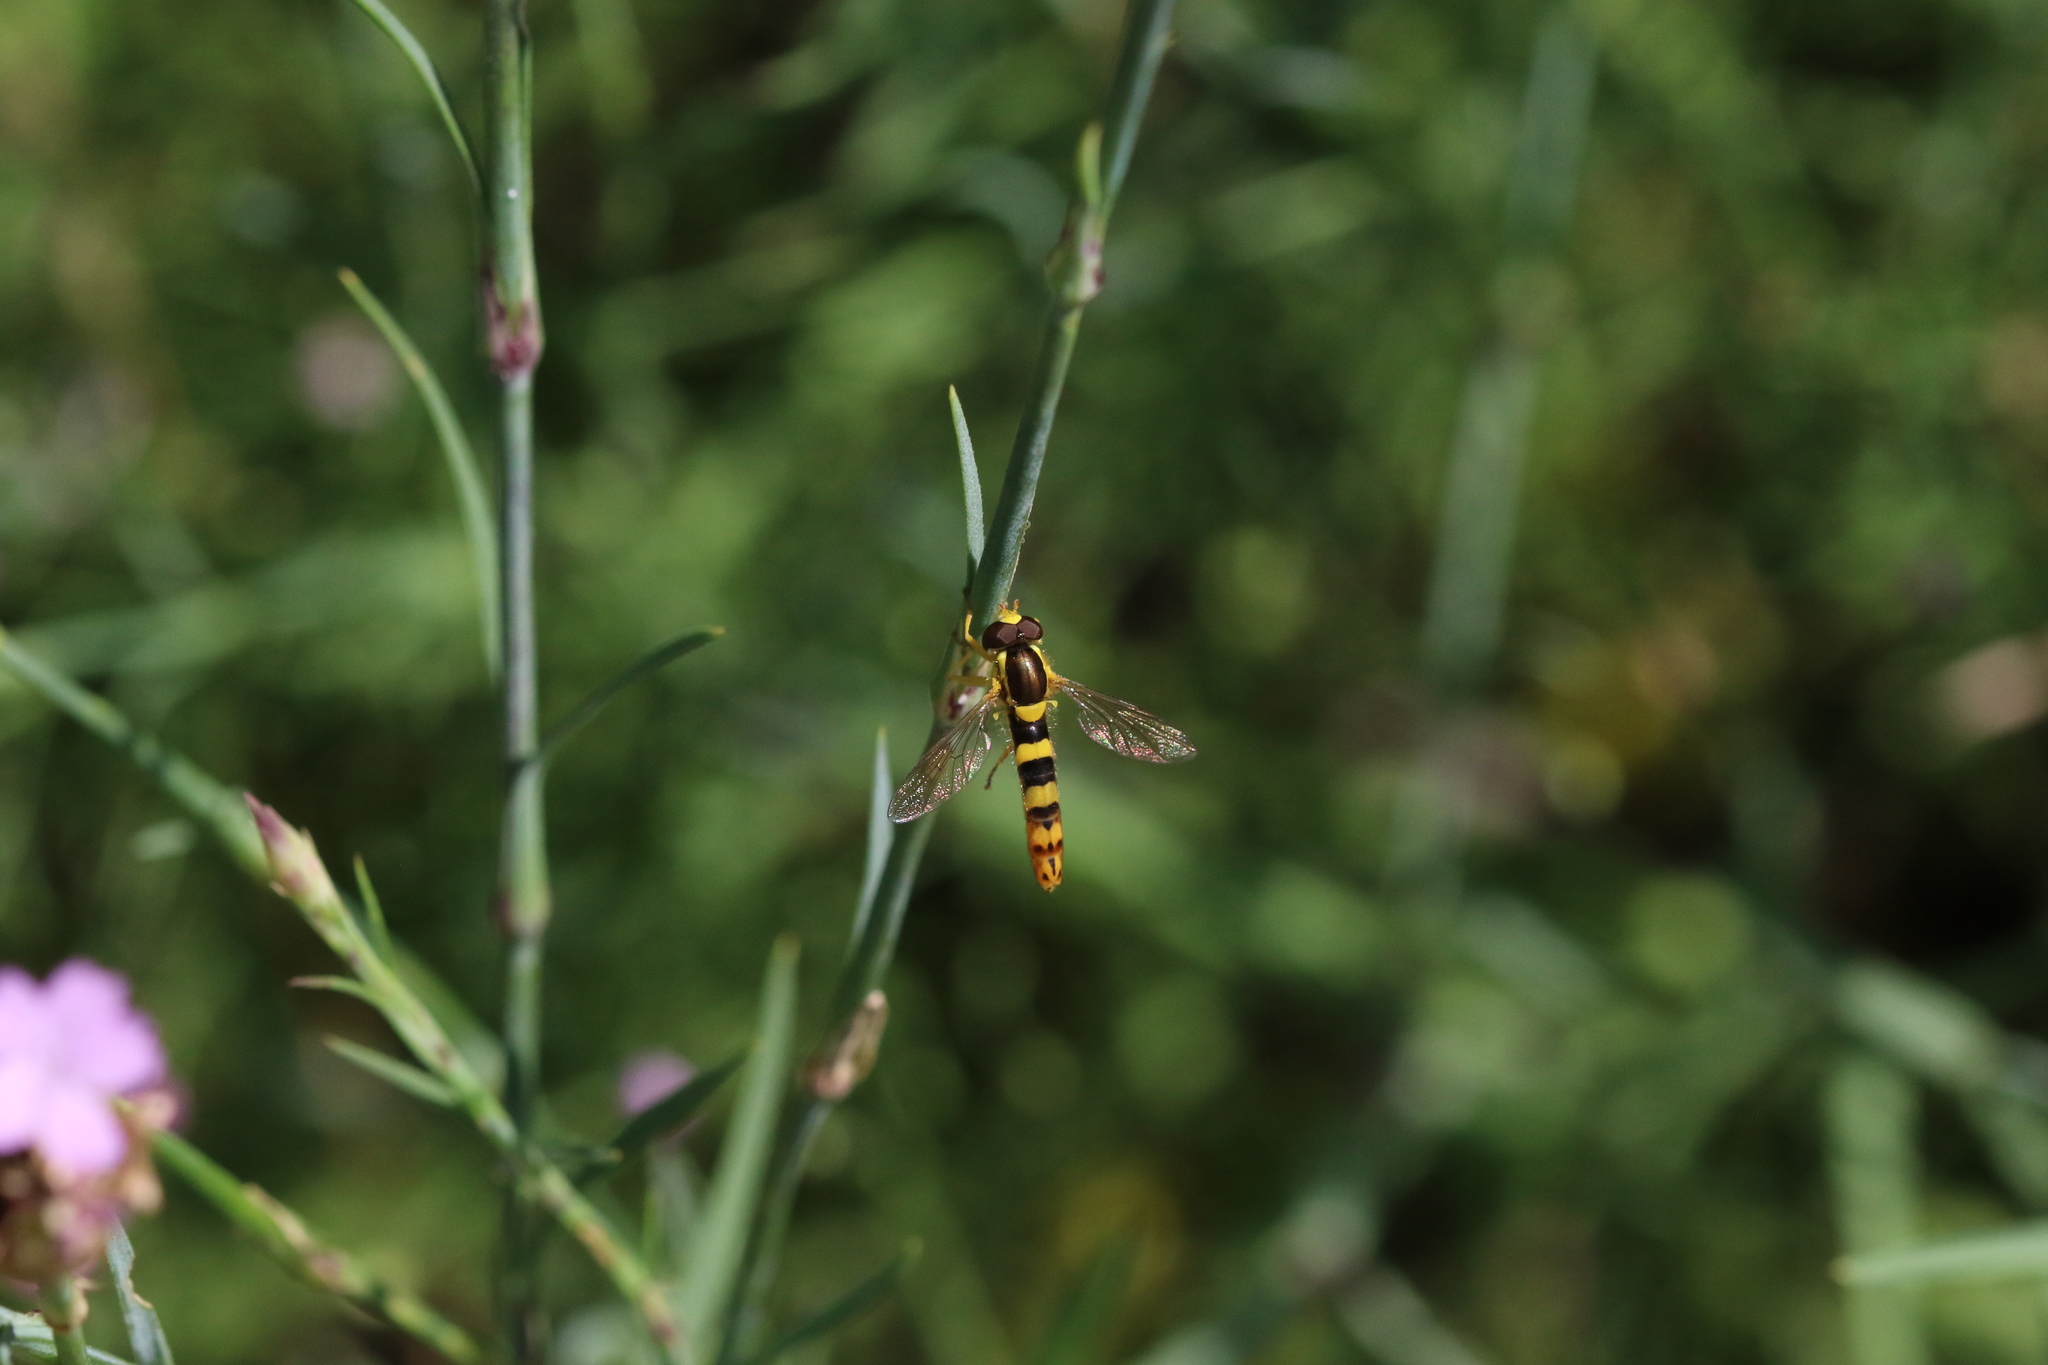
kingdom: Animalia
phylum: Arthropoda
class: Insecta
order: Diptera
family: Syrphidae
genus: Sphaerophoria
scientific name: Sphaerophoria scripta
